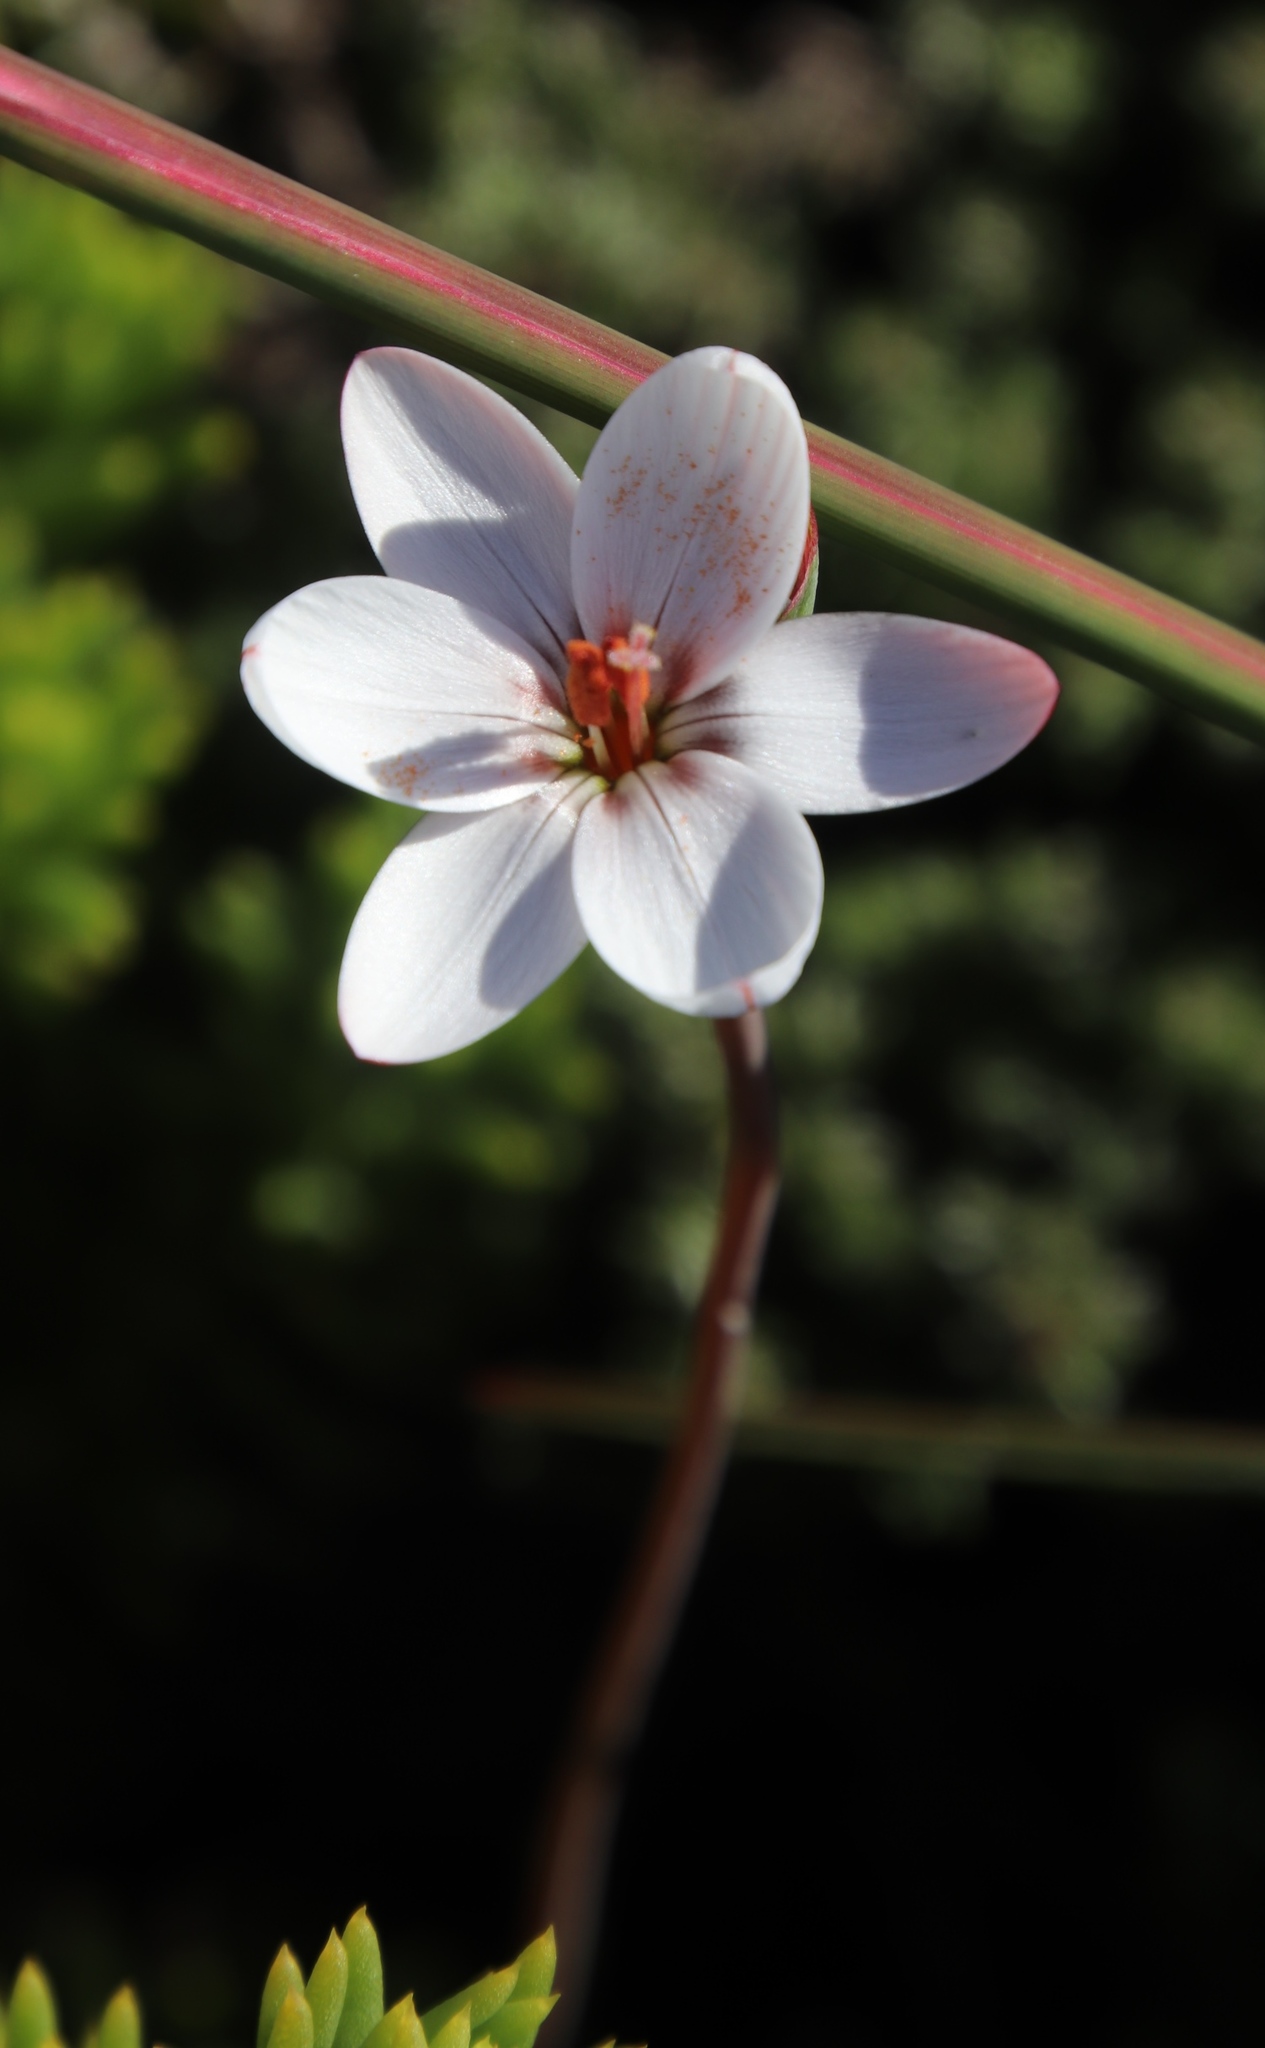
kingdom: Plantae
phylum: Tracheophyta
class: Liliopsida
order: Asparagales
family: Iridaceae
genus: Geissorhiza
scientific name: Geissorhiza ovata
